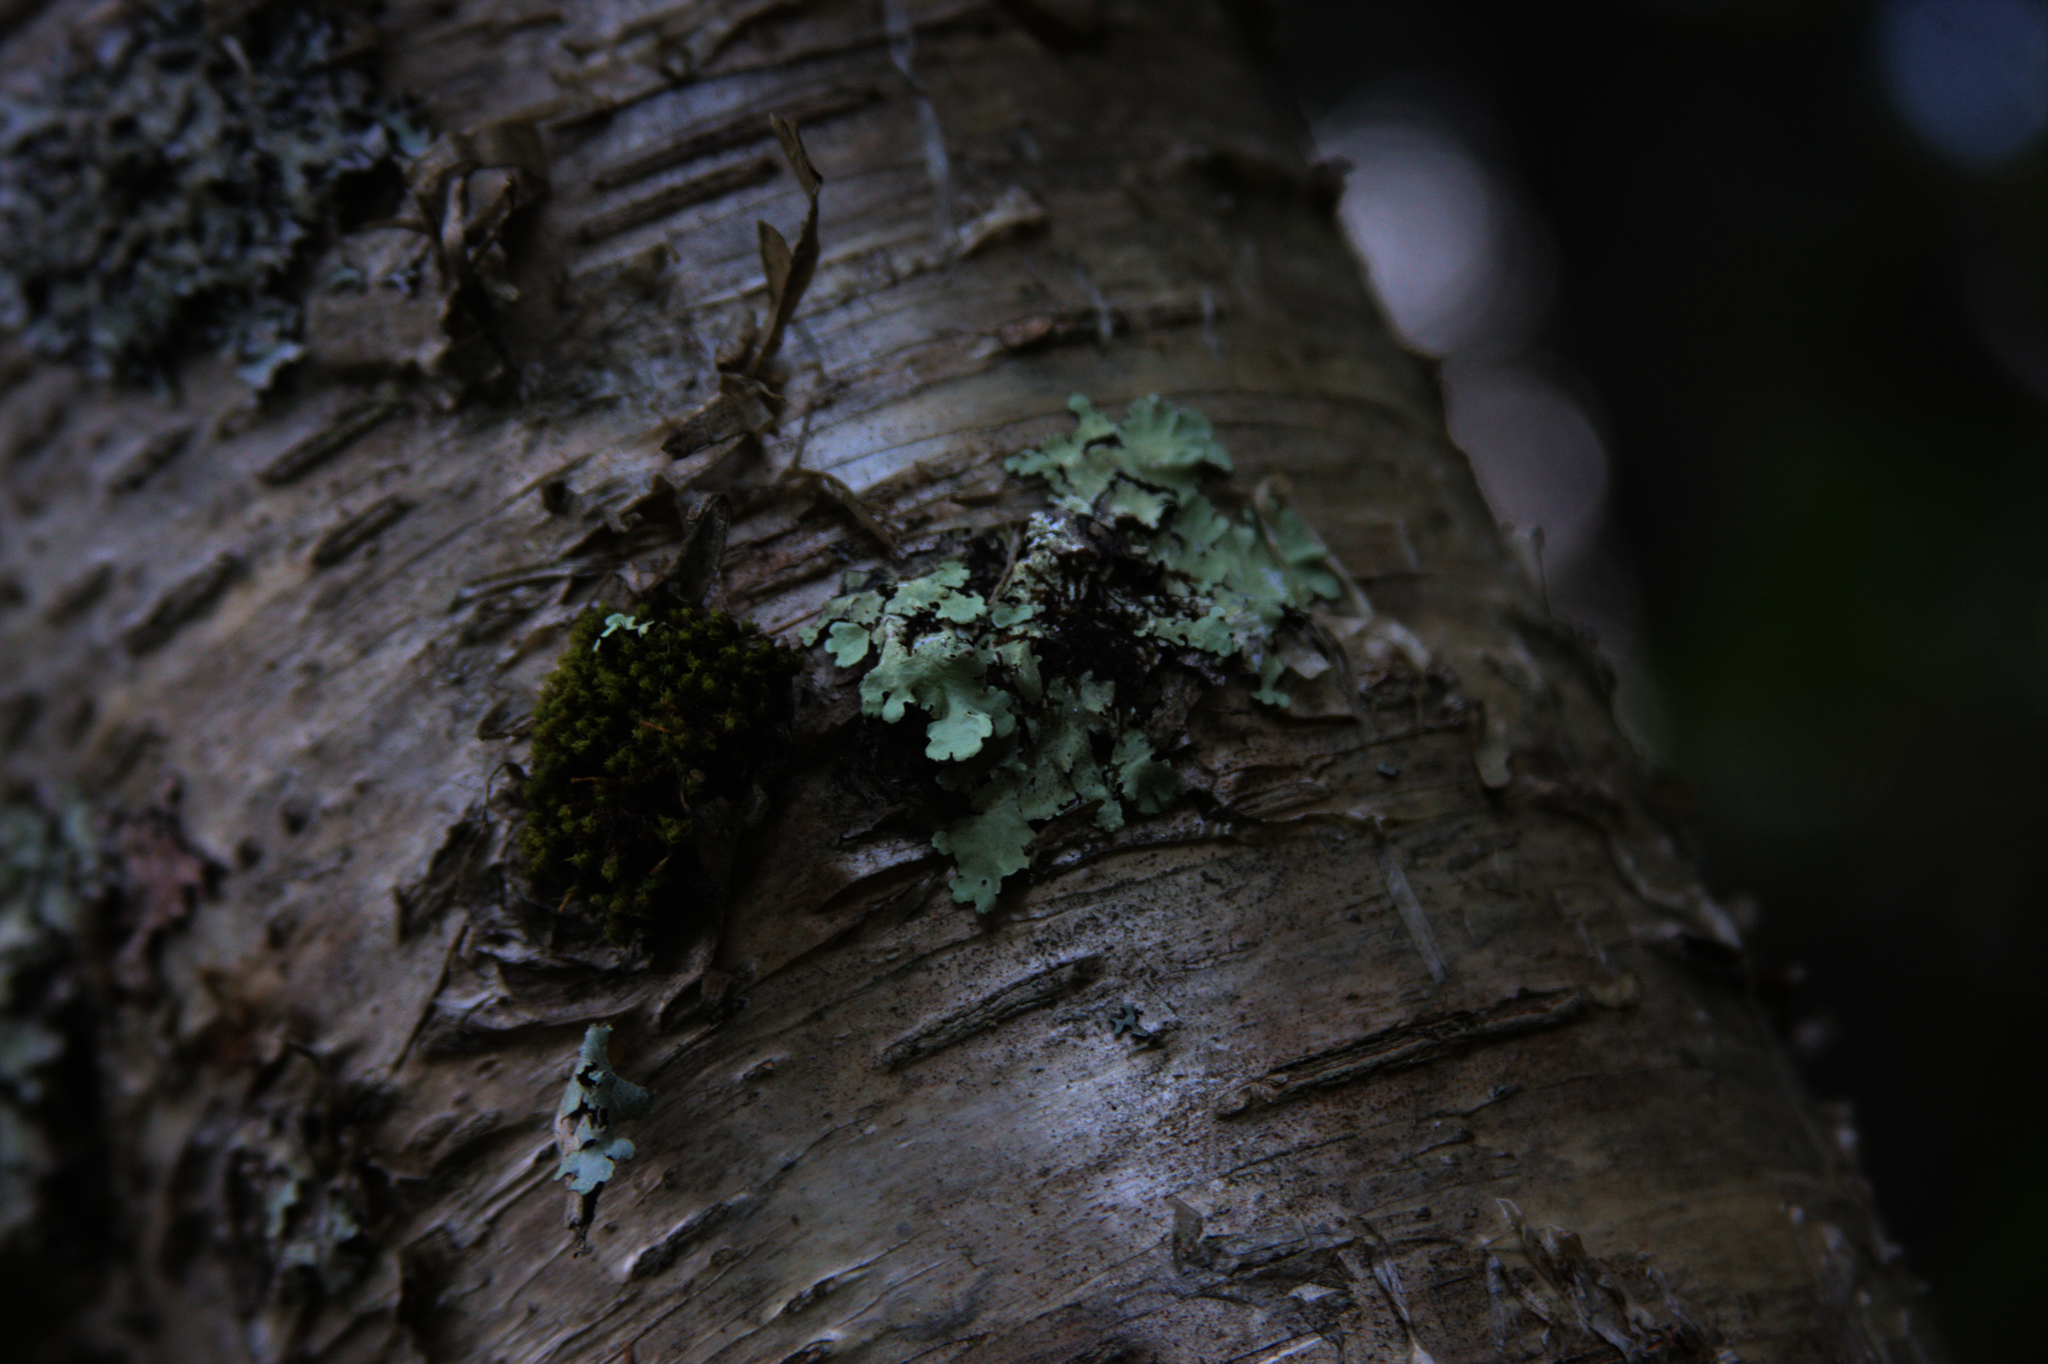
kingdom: Plantae
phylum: Bryophyta
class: Bryopsida
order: Orthotrichales
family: Orthotrichaceae
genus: Ulota
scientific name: Ulota crispa
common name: Crisped pincushion moss
